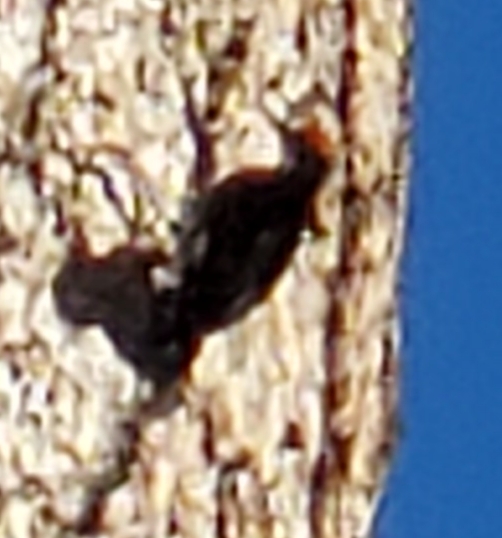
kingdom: Animalia
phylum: Chordata
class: Aves
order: Piciformes
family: Picidae
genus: Melanerpes
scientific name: Melanerpes formicivorus
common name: Acorn woodpecker
